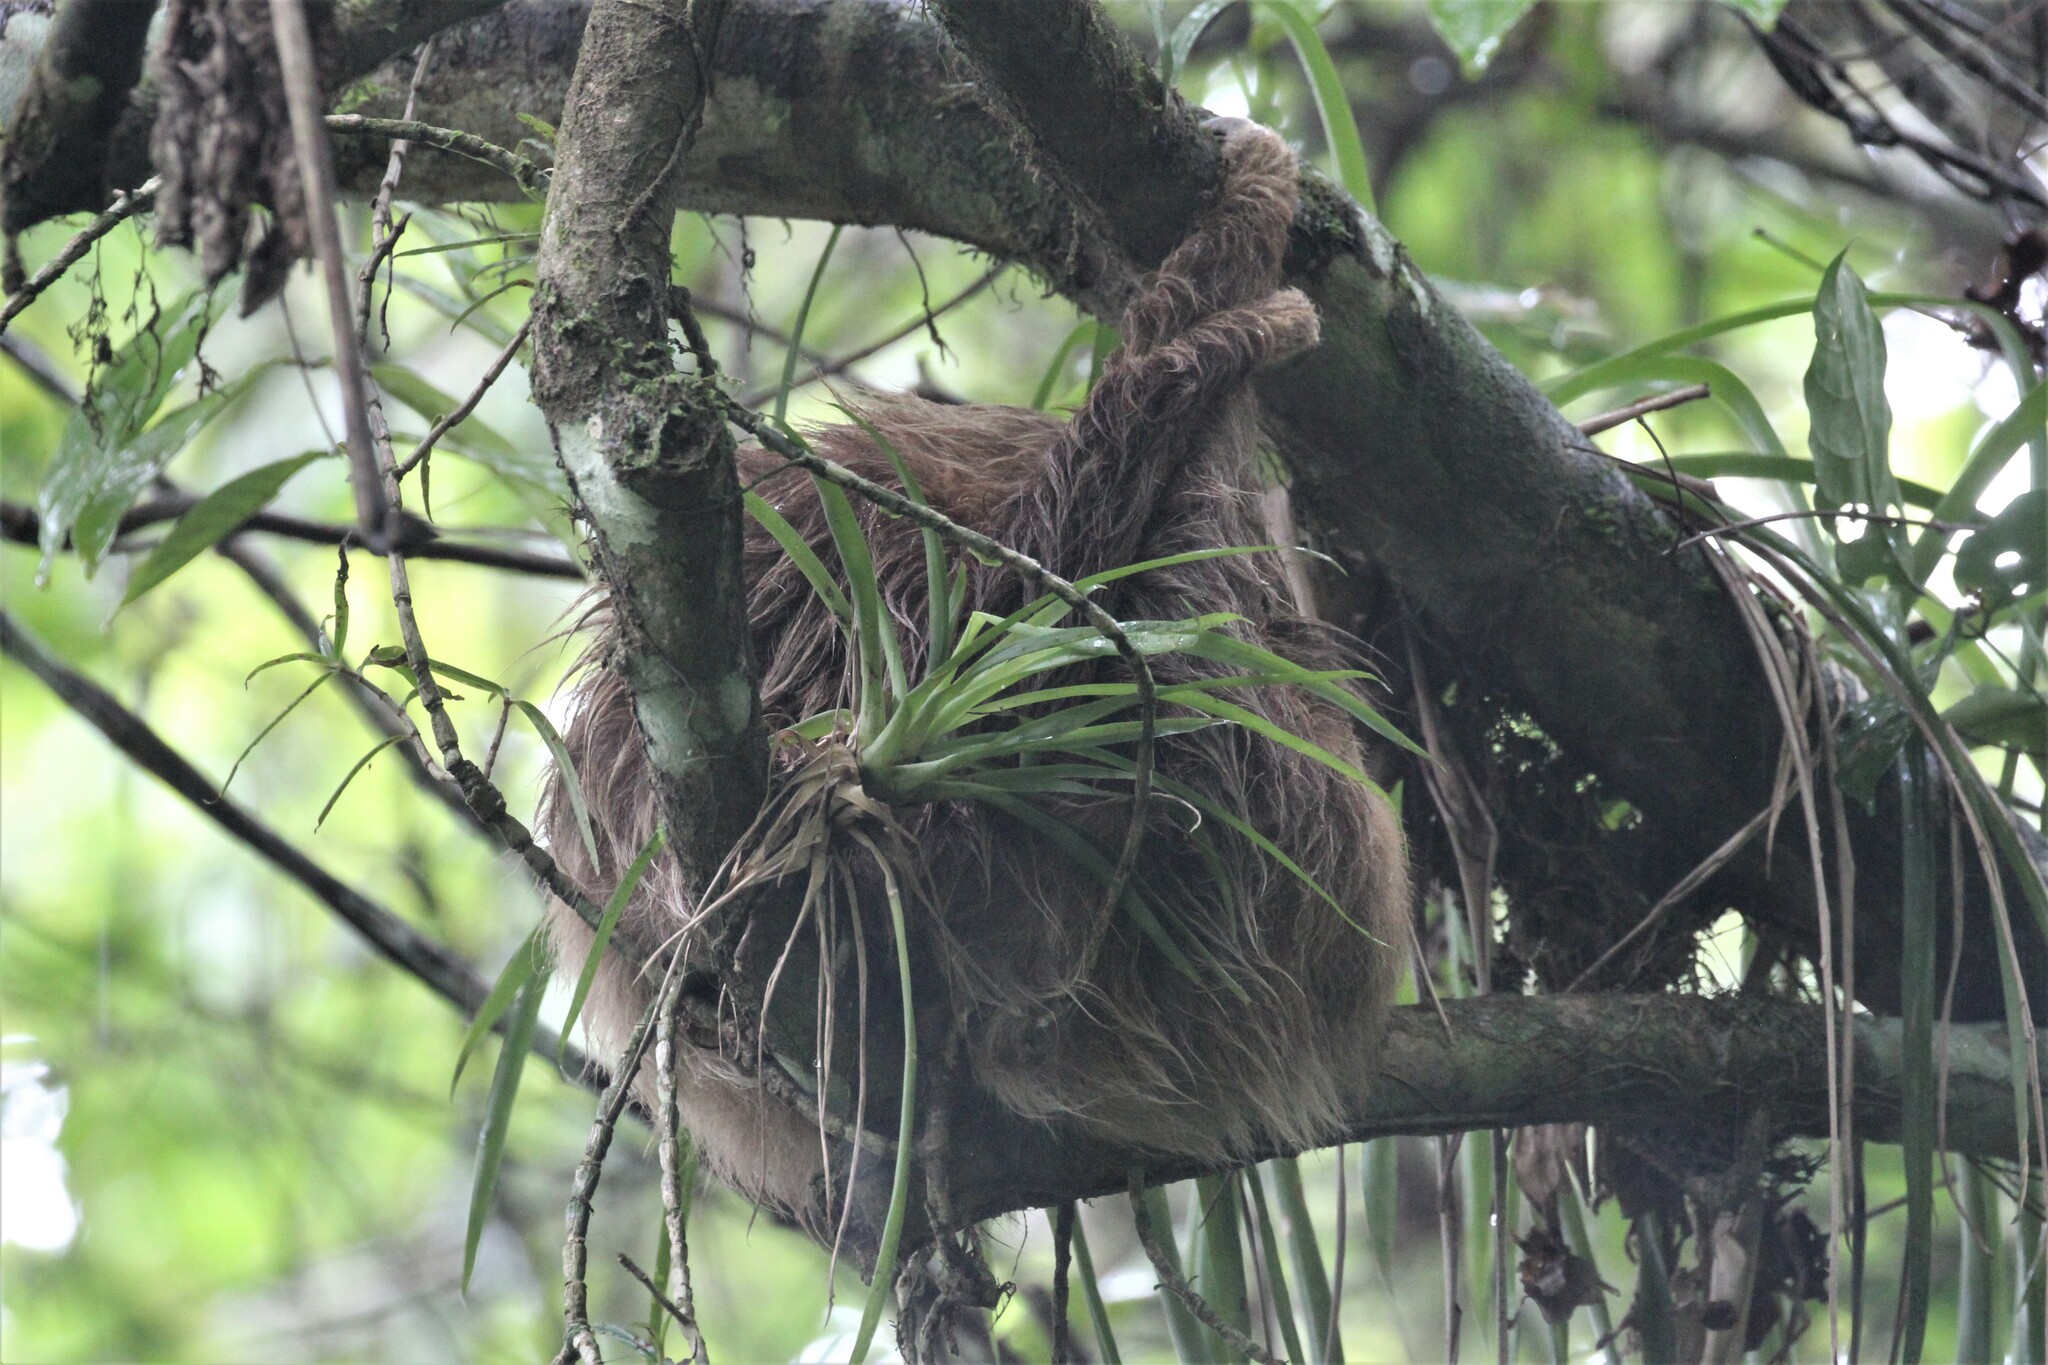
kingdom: Animalia
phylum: Chordata
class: Mammalia
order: Pilosa
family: Megalonychidae
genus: Choloepus
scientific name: Choloepus hoffmanni
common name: Hoffmann's two-toed sloth
